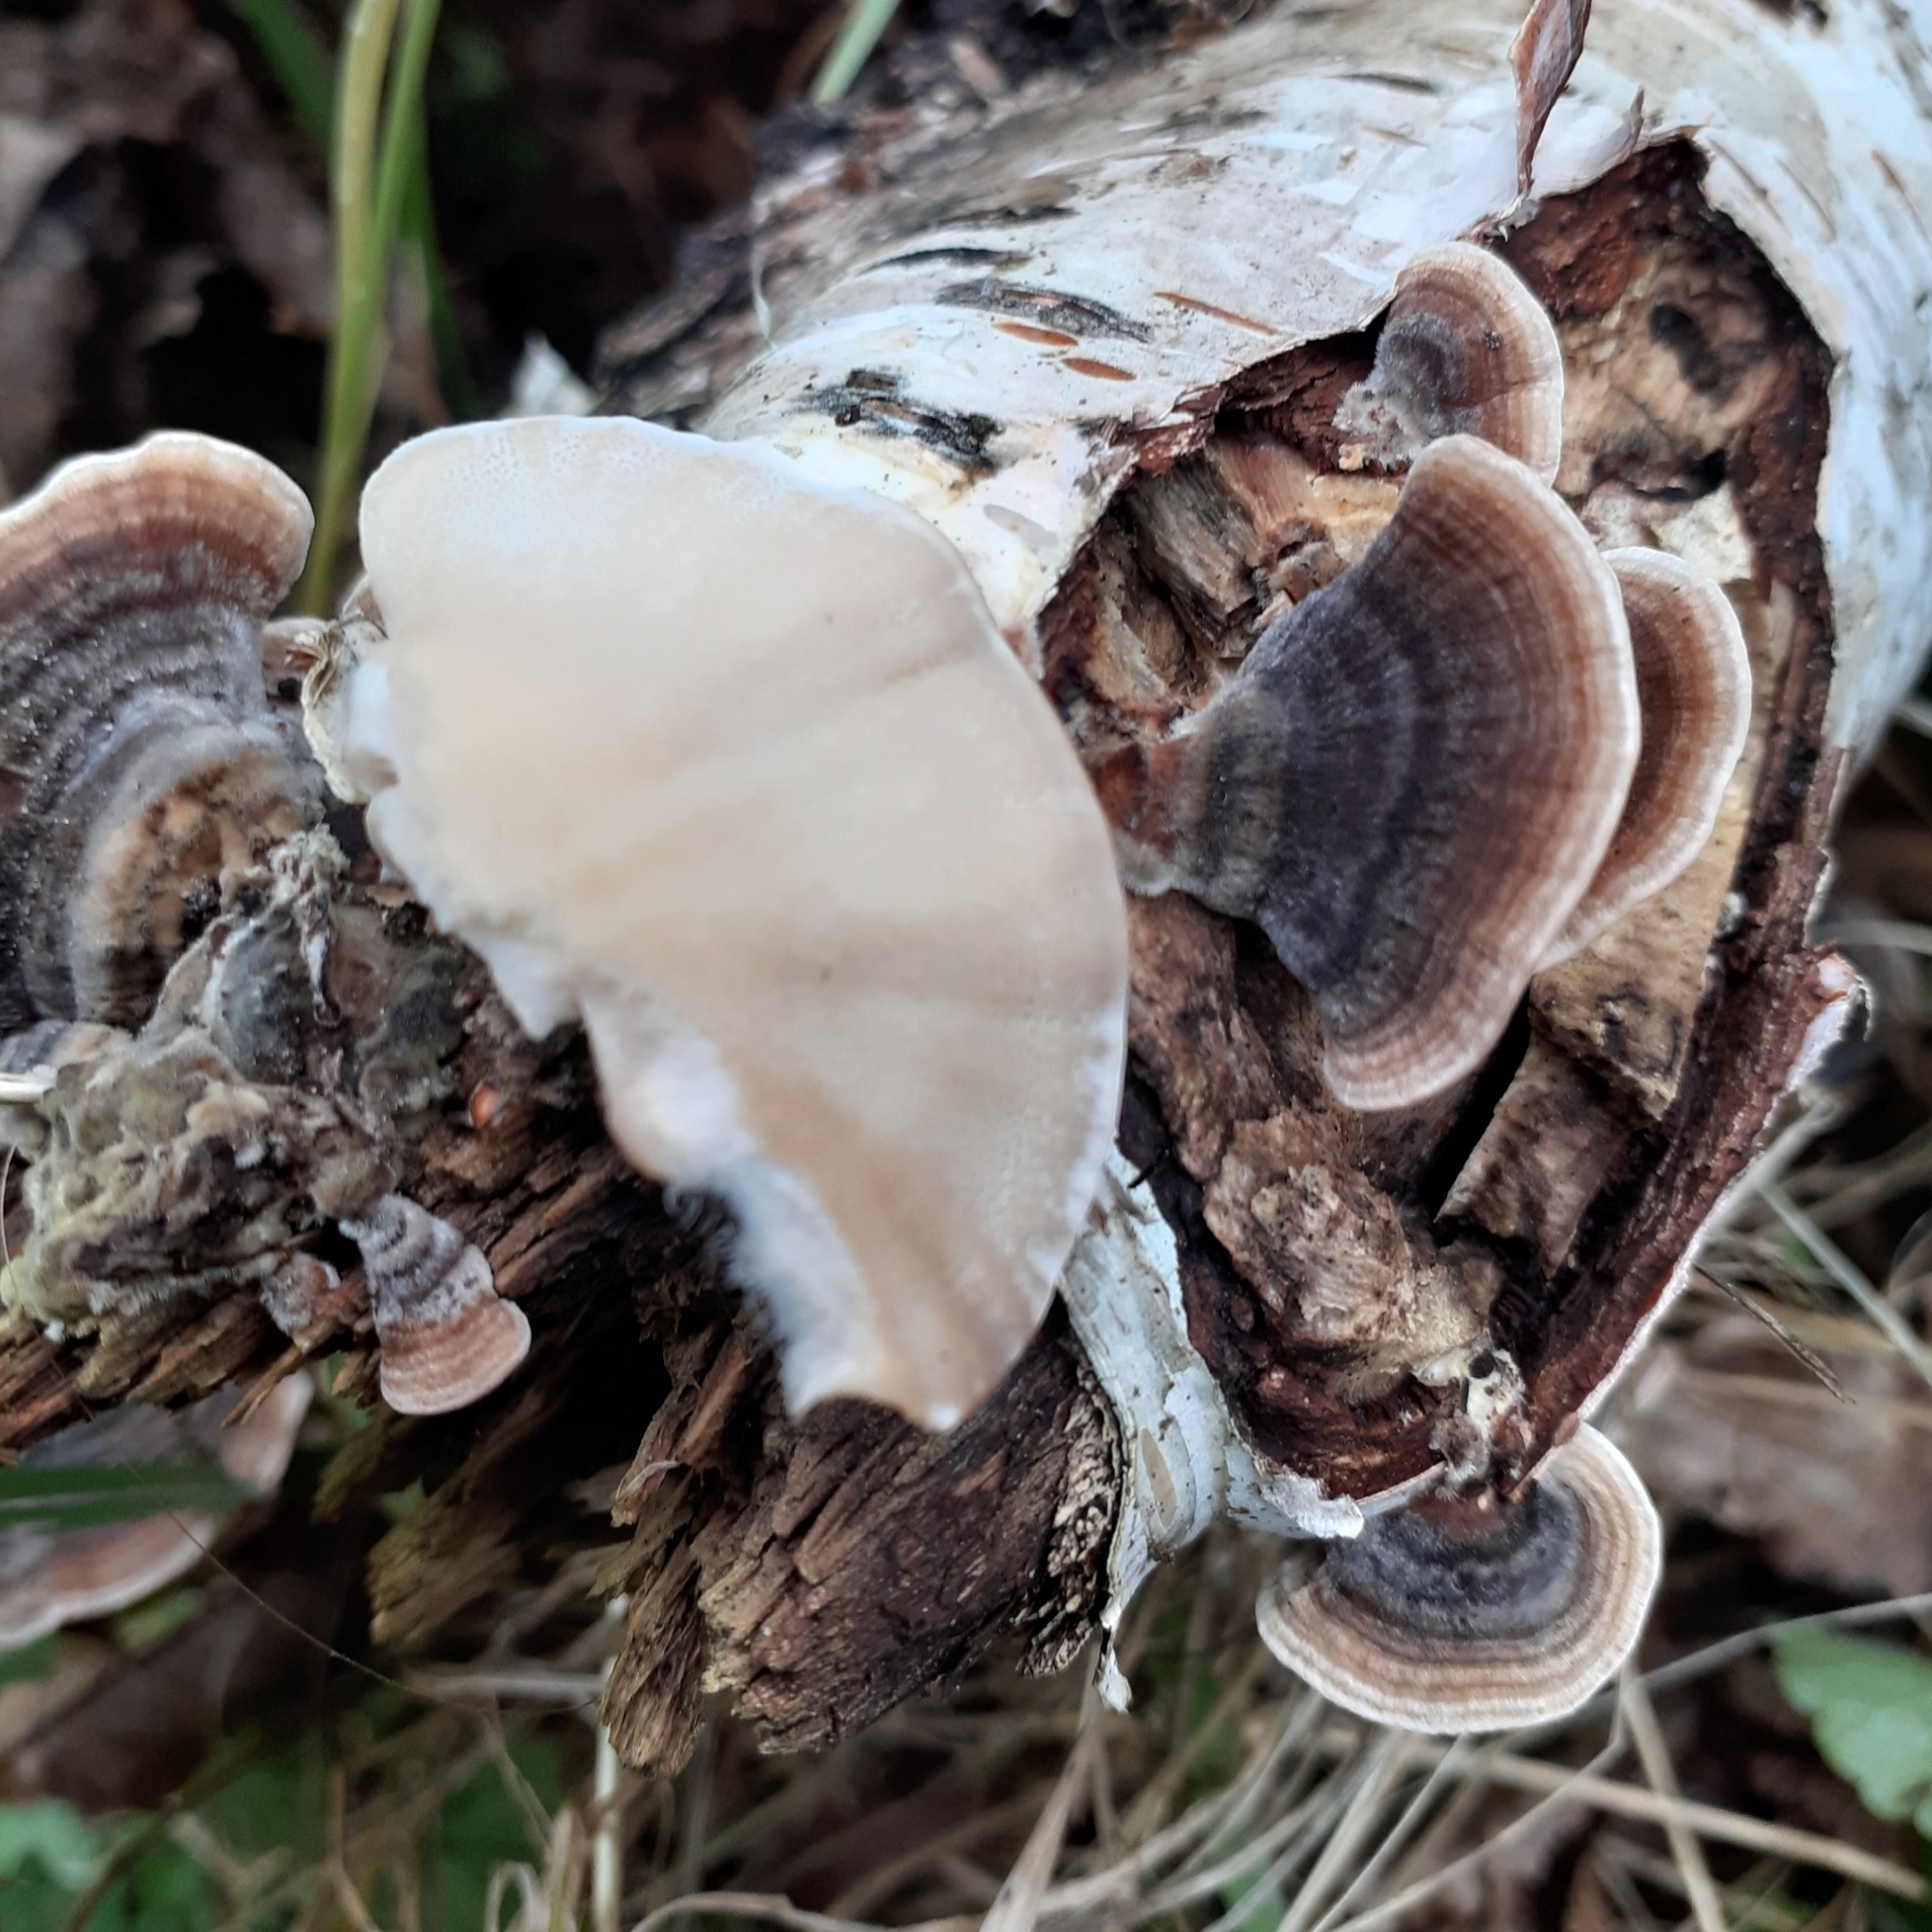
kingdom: Fungi
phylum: Basidiomycota
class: Agaricomycetes
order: Polyporales
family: Polyporaceae
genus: Trametes
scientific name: Trametes versicolor
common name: Turkeytail
